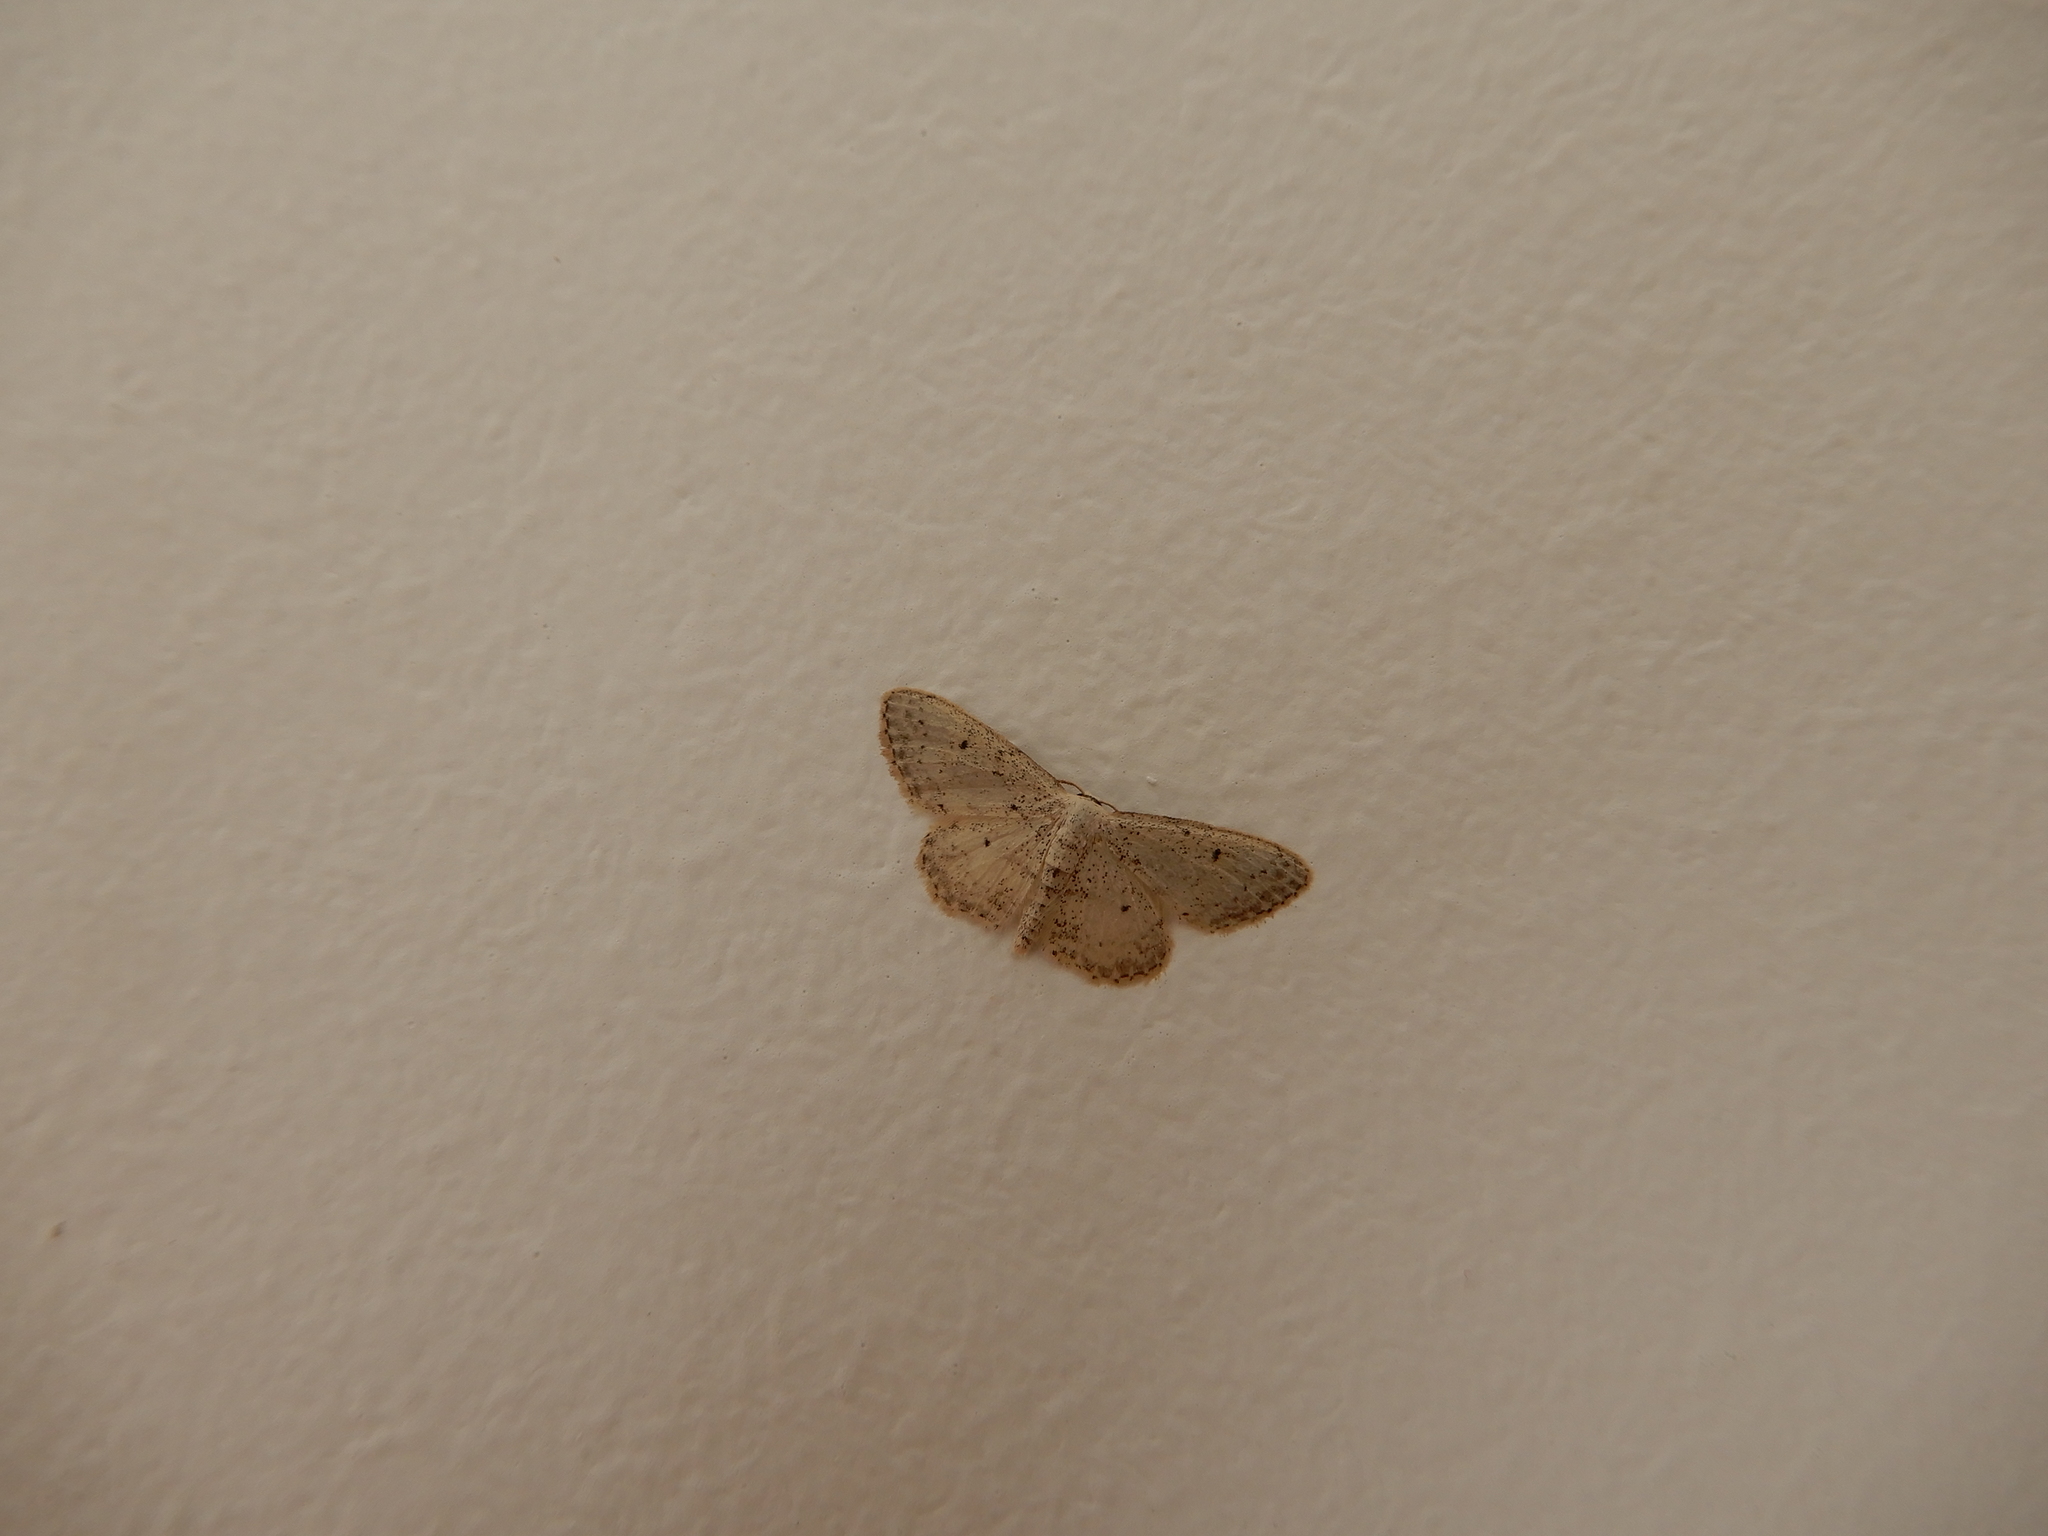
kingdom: Animalia
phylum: Arthropoda
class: Insecta
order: Lepidoptera
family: Geometridae
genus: Idaea
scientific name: Idaea seriata
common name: Small dusty wave
